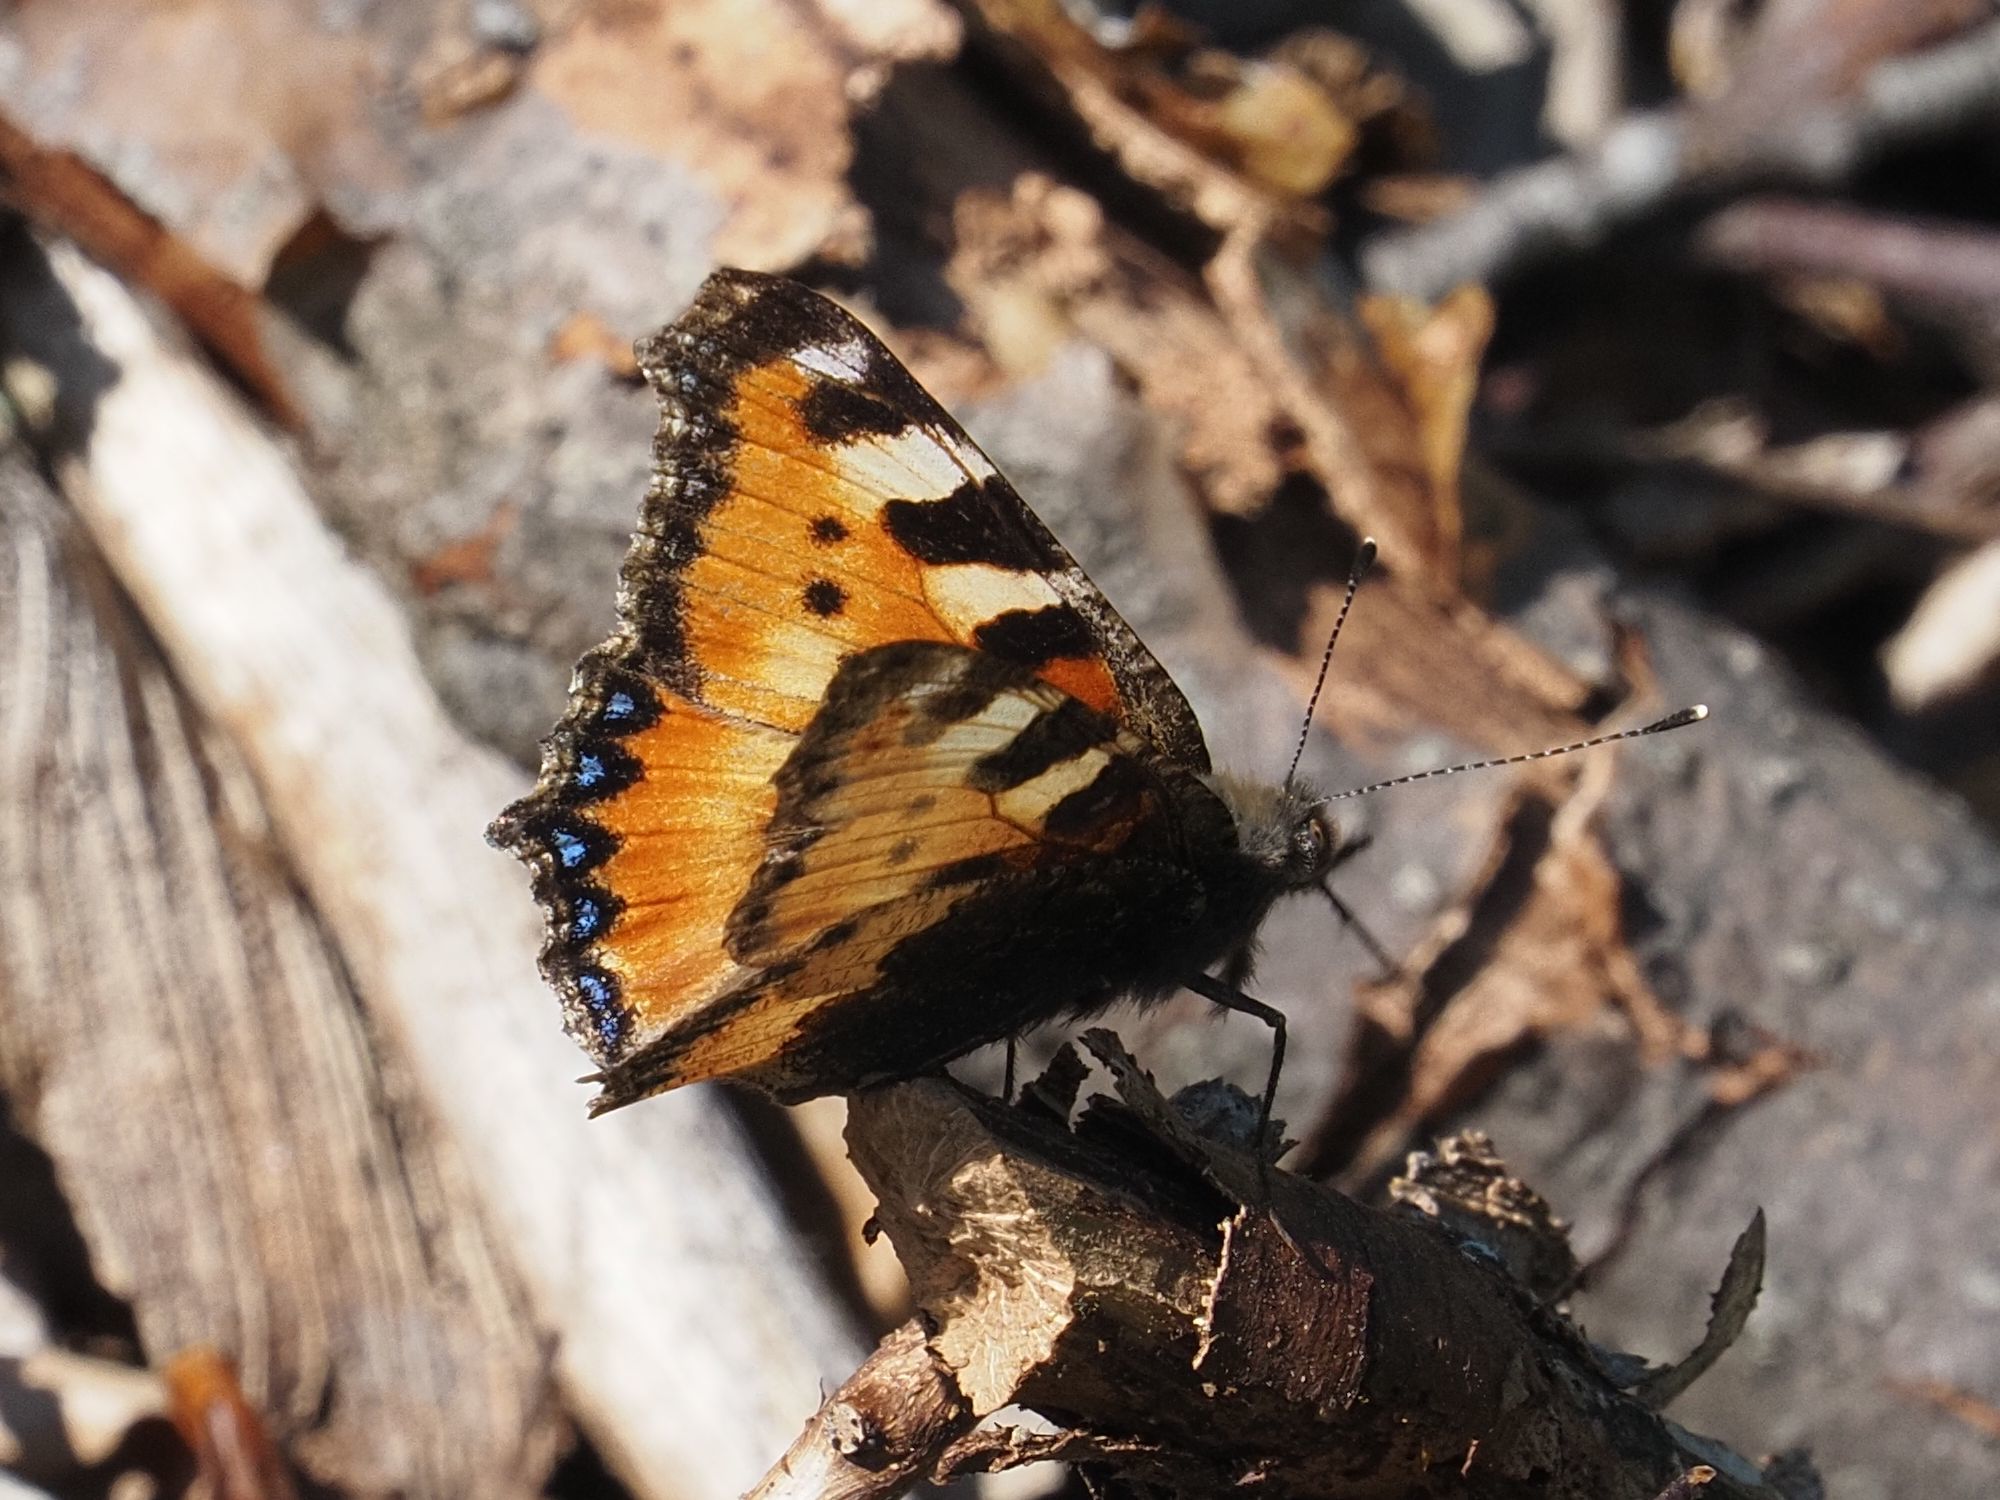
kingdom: Animalia
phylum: Arthropoda
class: Insecta
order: Lepidoptera
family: Nymphalidae
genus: Aglais
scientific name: Aglais urticae
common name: Small tortoiseshell
